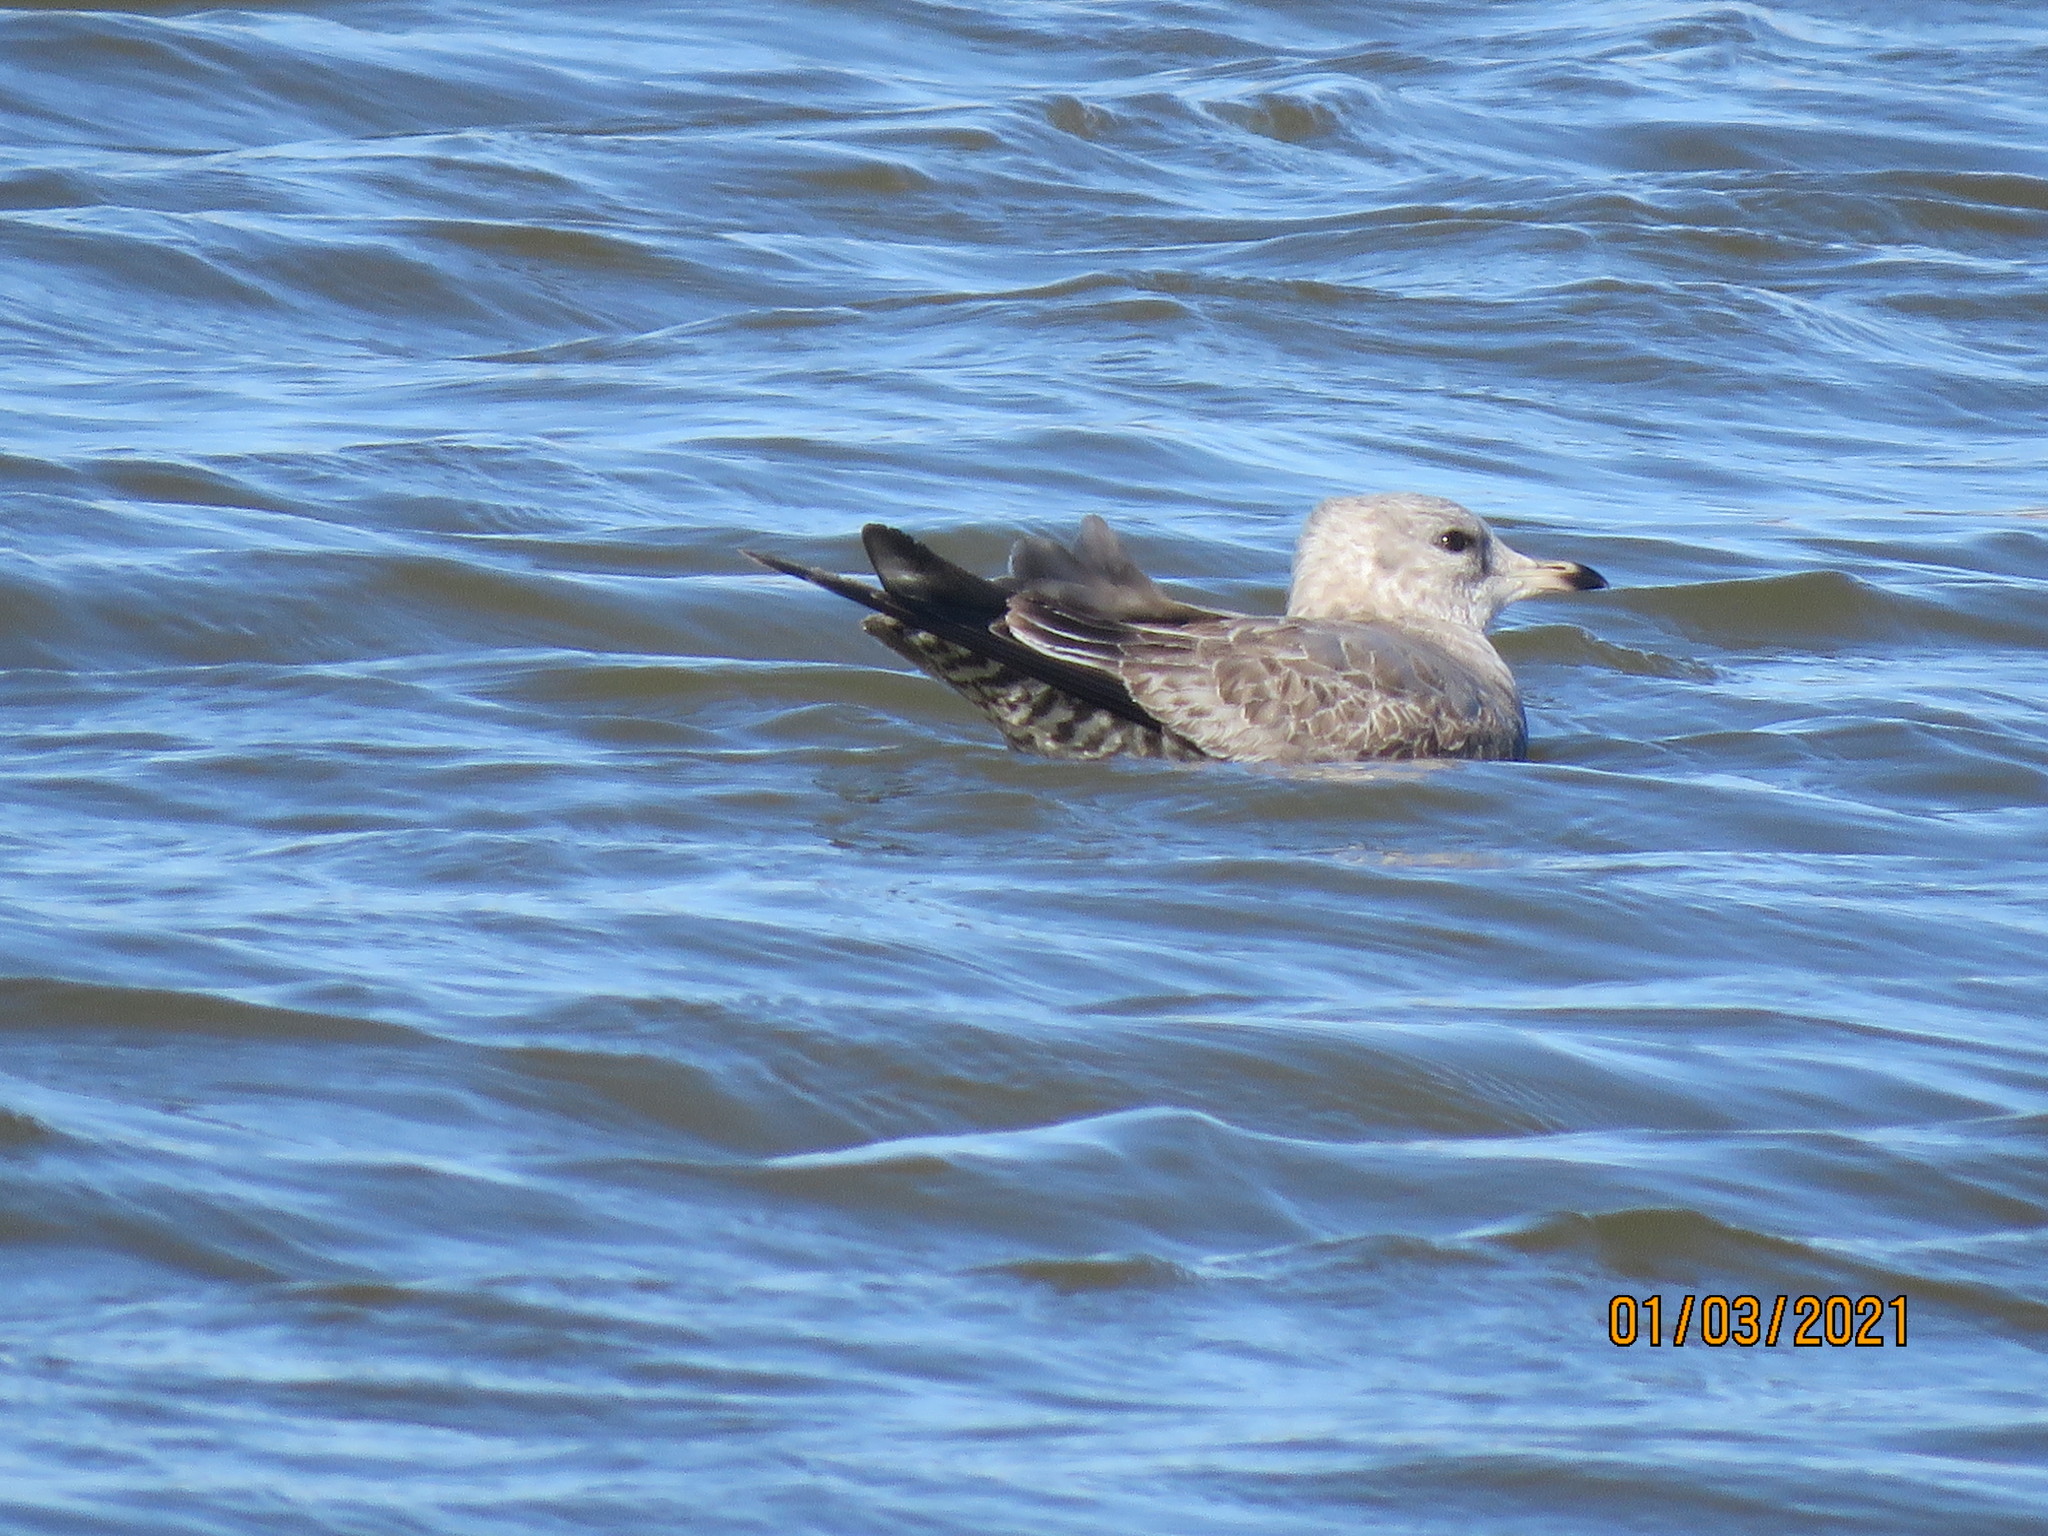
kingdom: Animalia
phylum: Chordata
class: Aves
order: Charadriiformes
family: Laridae
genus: Larus
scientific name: Larus brachyrhynchus
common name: Short-billed gull
